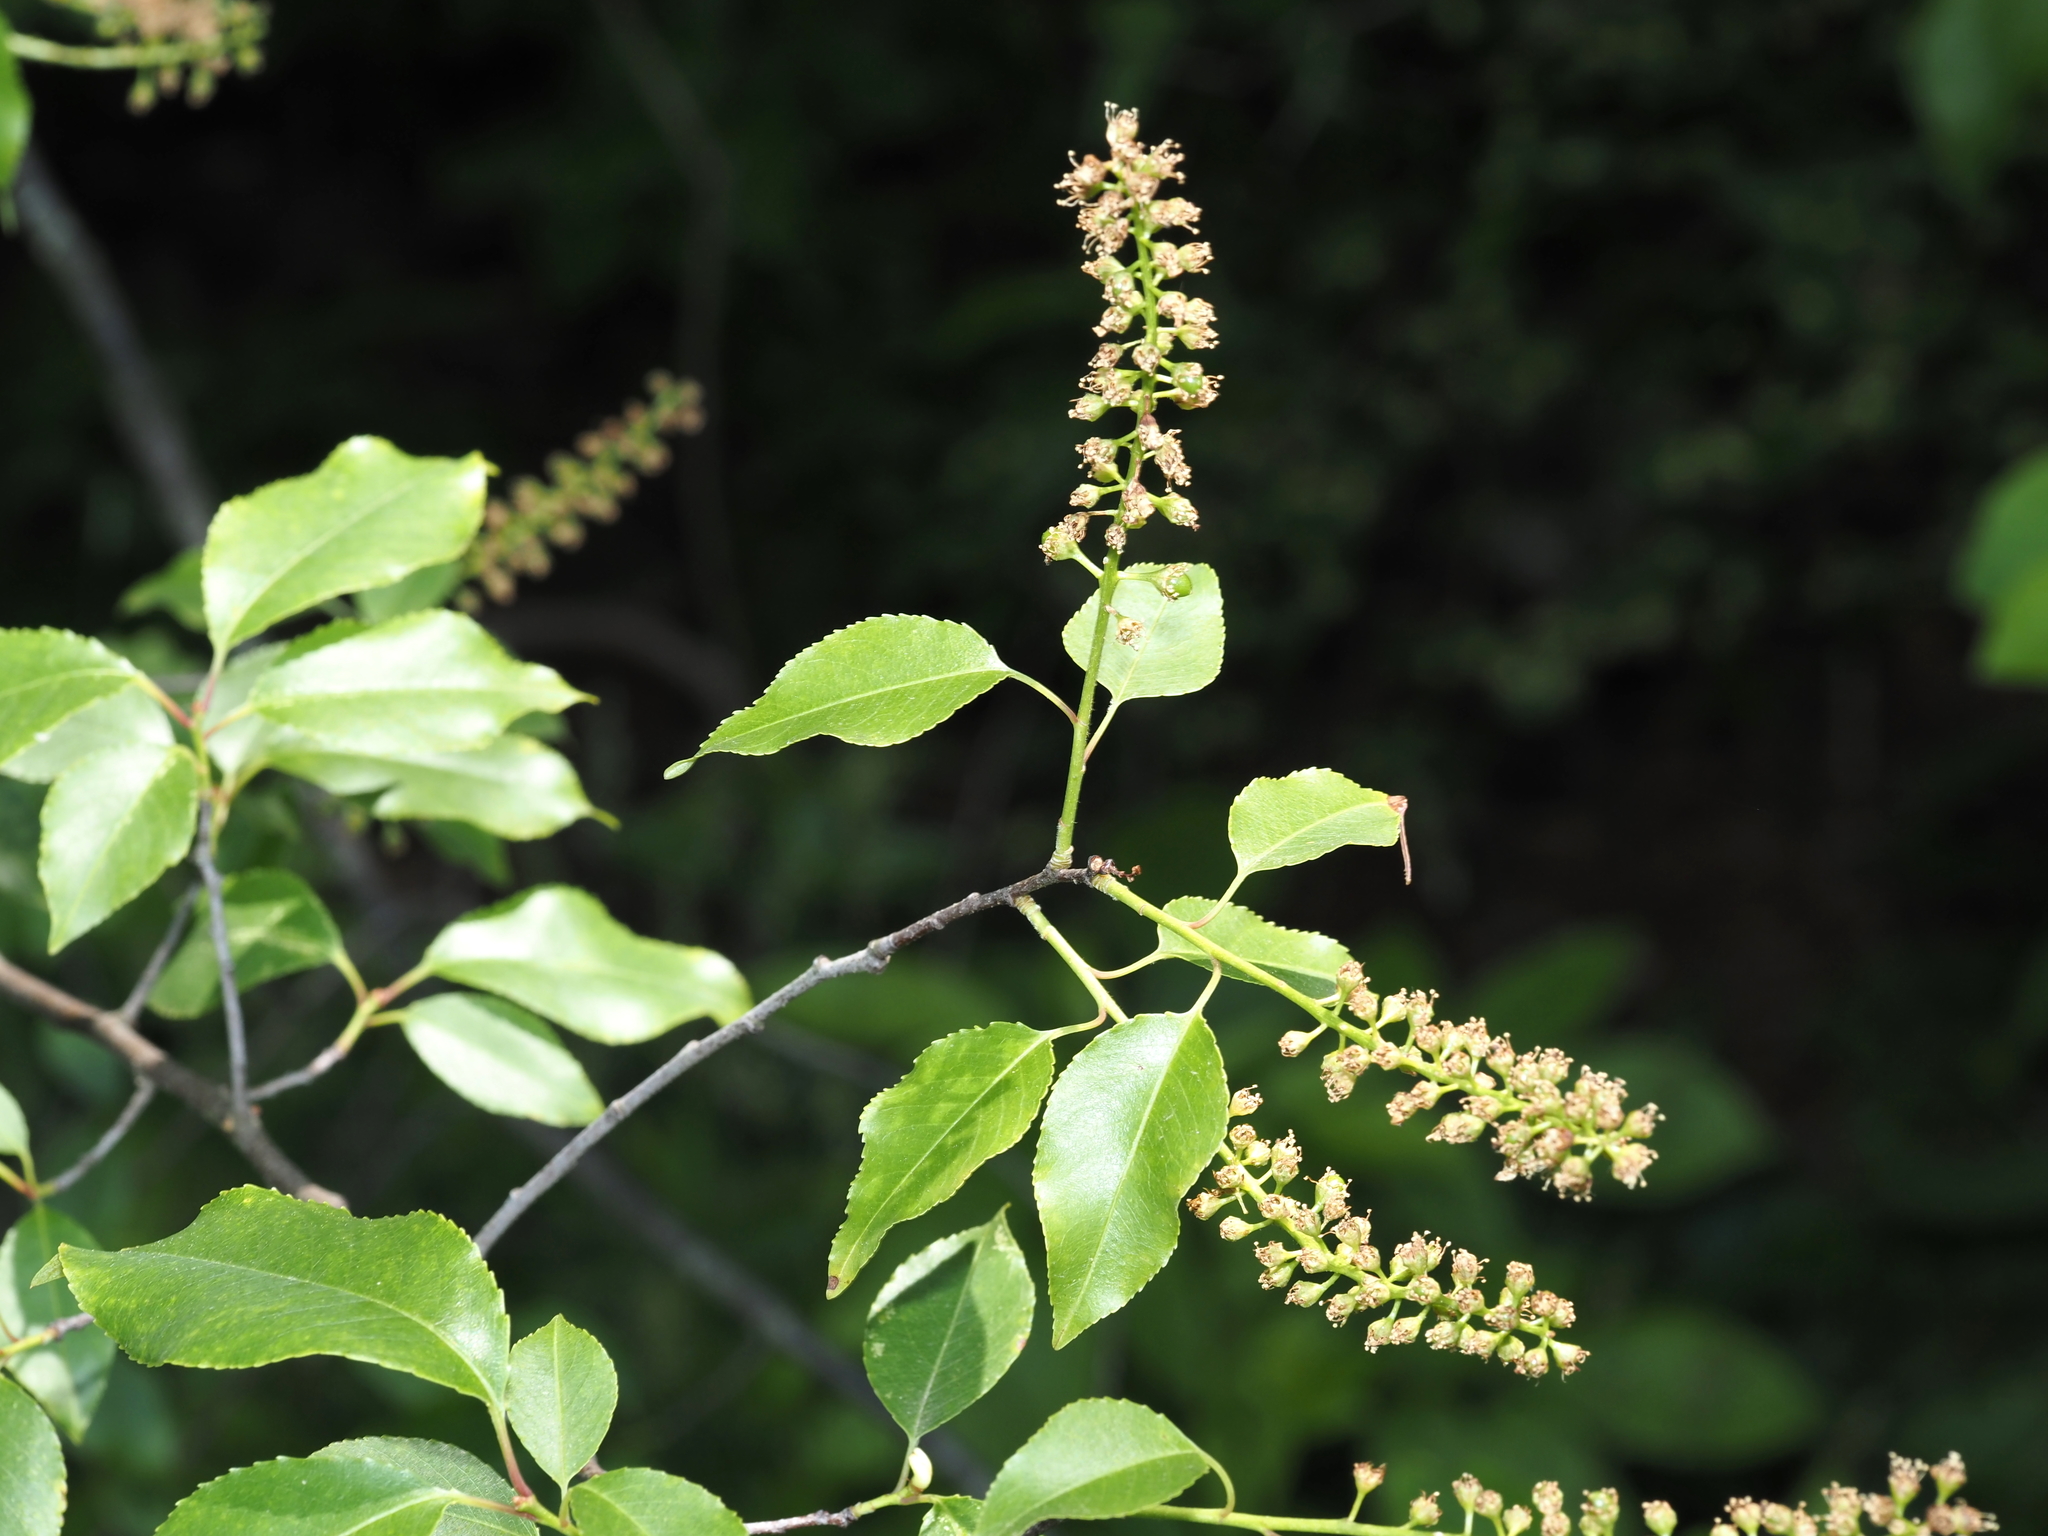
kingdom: Plantae
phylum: Tracheophyta
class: Magnoliopsida
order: Rosales
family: Rosaceae
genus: Prunus
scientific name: Prunus serotina
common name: Black cherry
